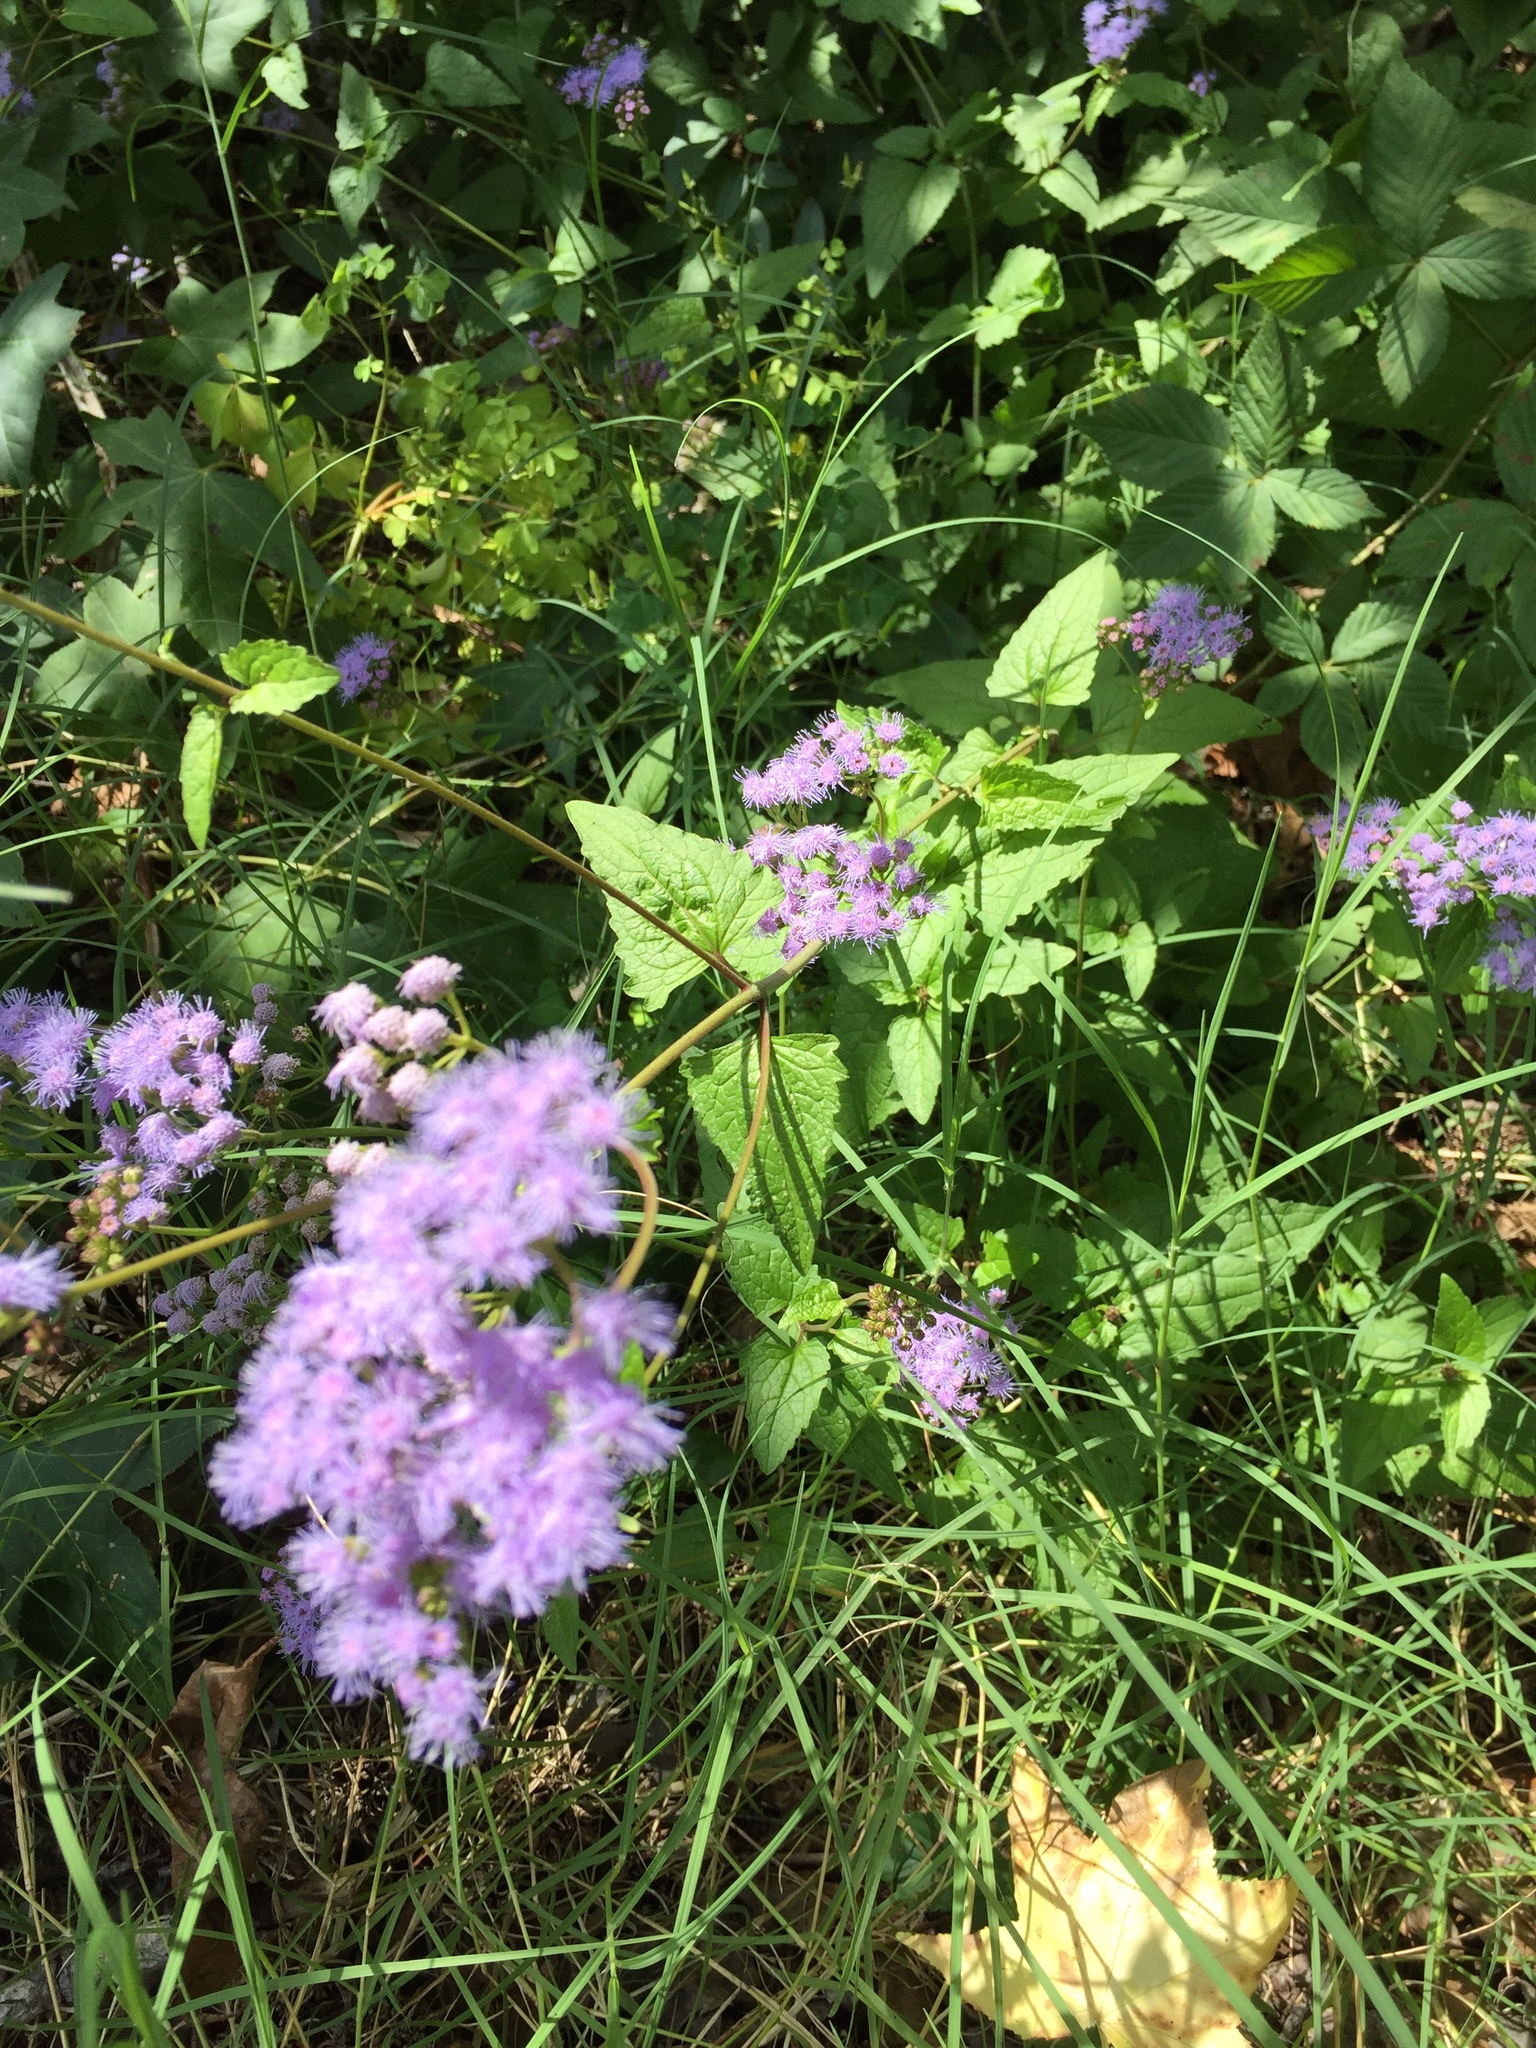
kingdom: Plantae
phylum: Tracheophyta
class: Magnoliopsida
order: Asterales
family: Asteraceae
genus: Conoclinium
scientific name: Conoclinium coelestinum
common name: Blue mistflower
